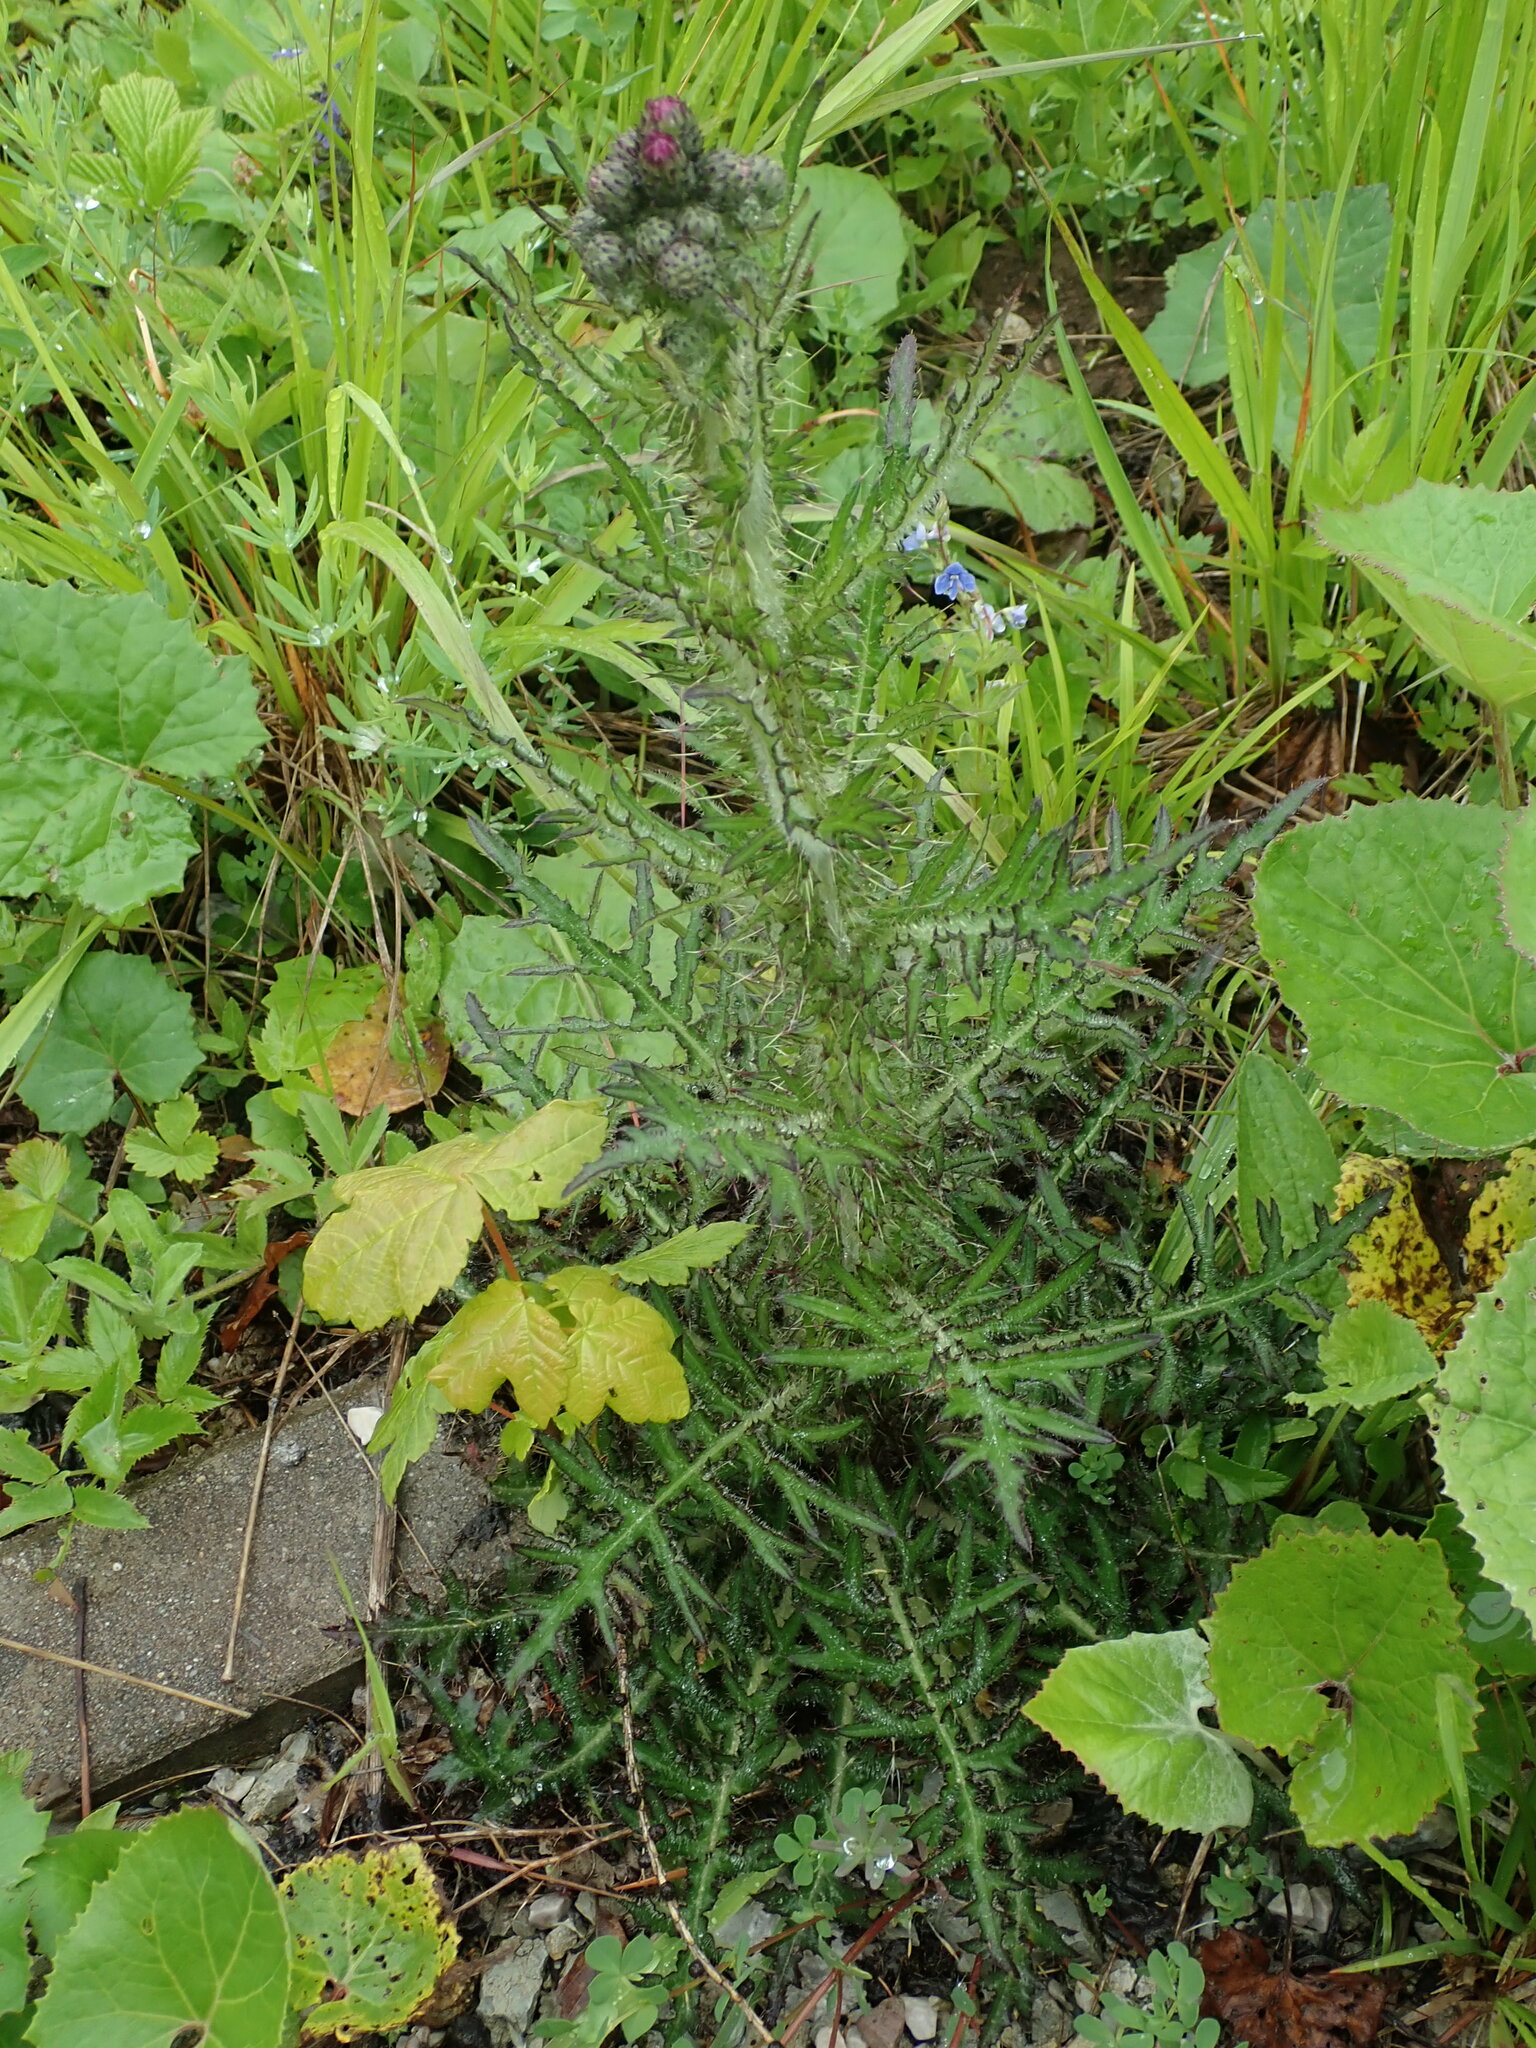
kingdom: Plantae
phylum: Tracheophyta
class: Magnoliopsida
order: Asterales
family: Asteraceae
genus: Cirsium
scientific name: Cirsium palustre
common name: Marsh thistle
